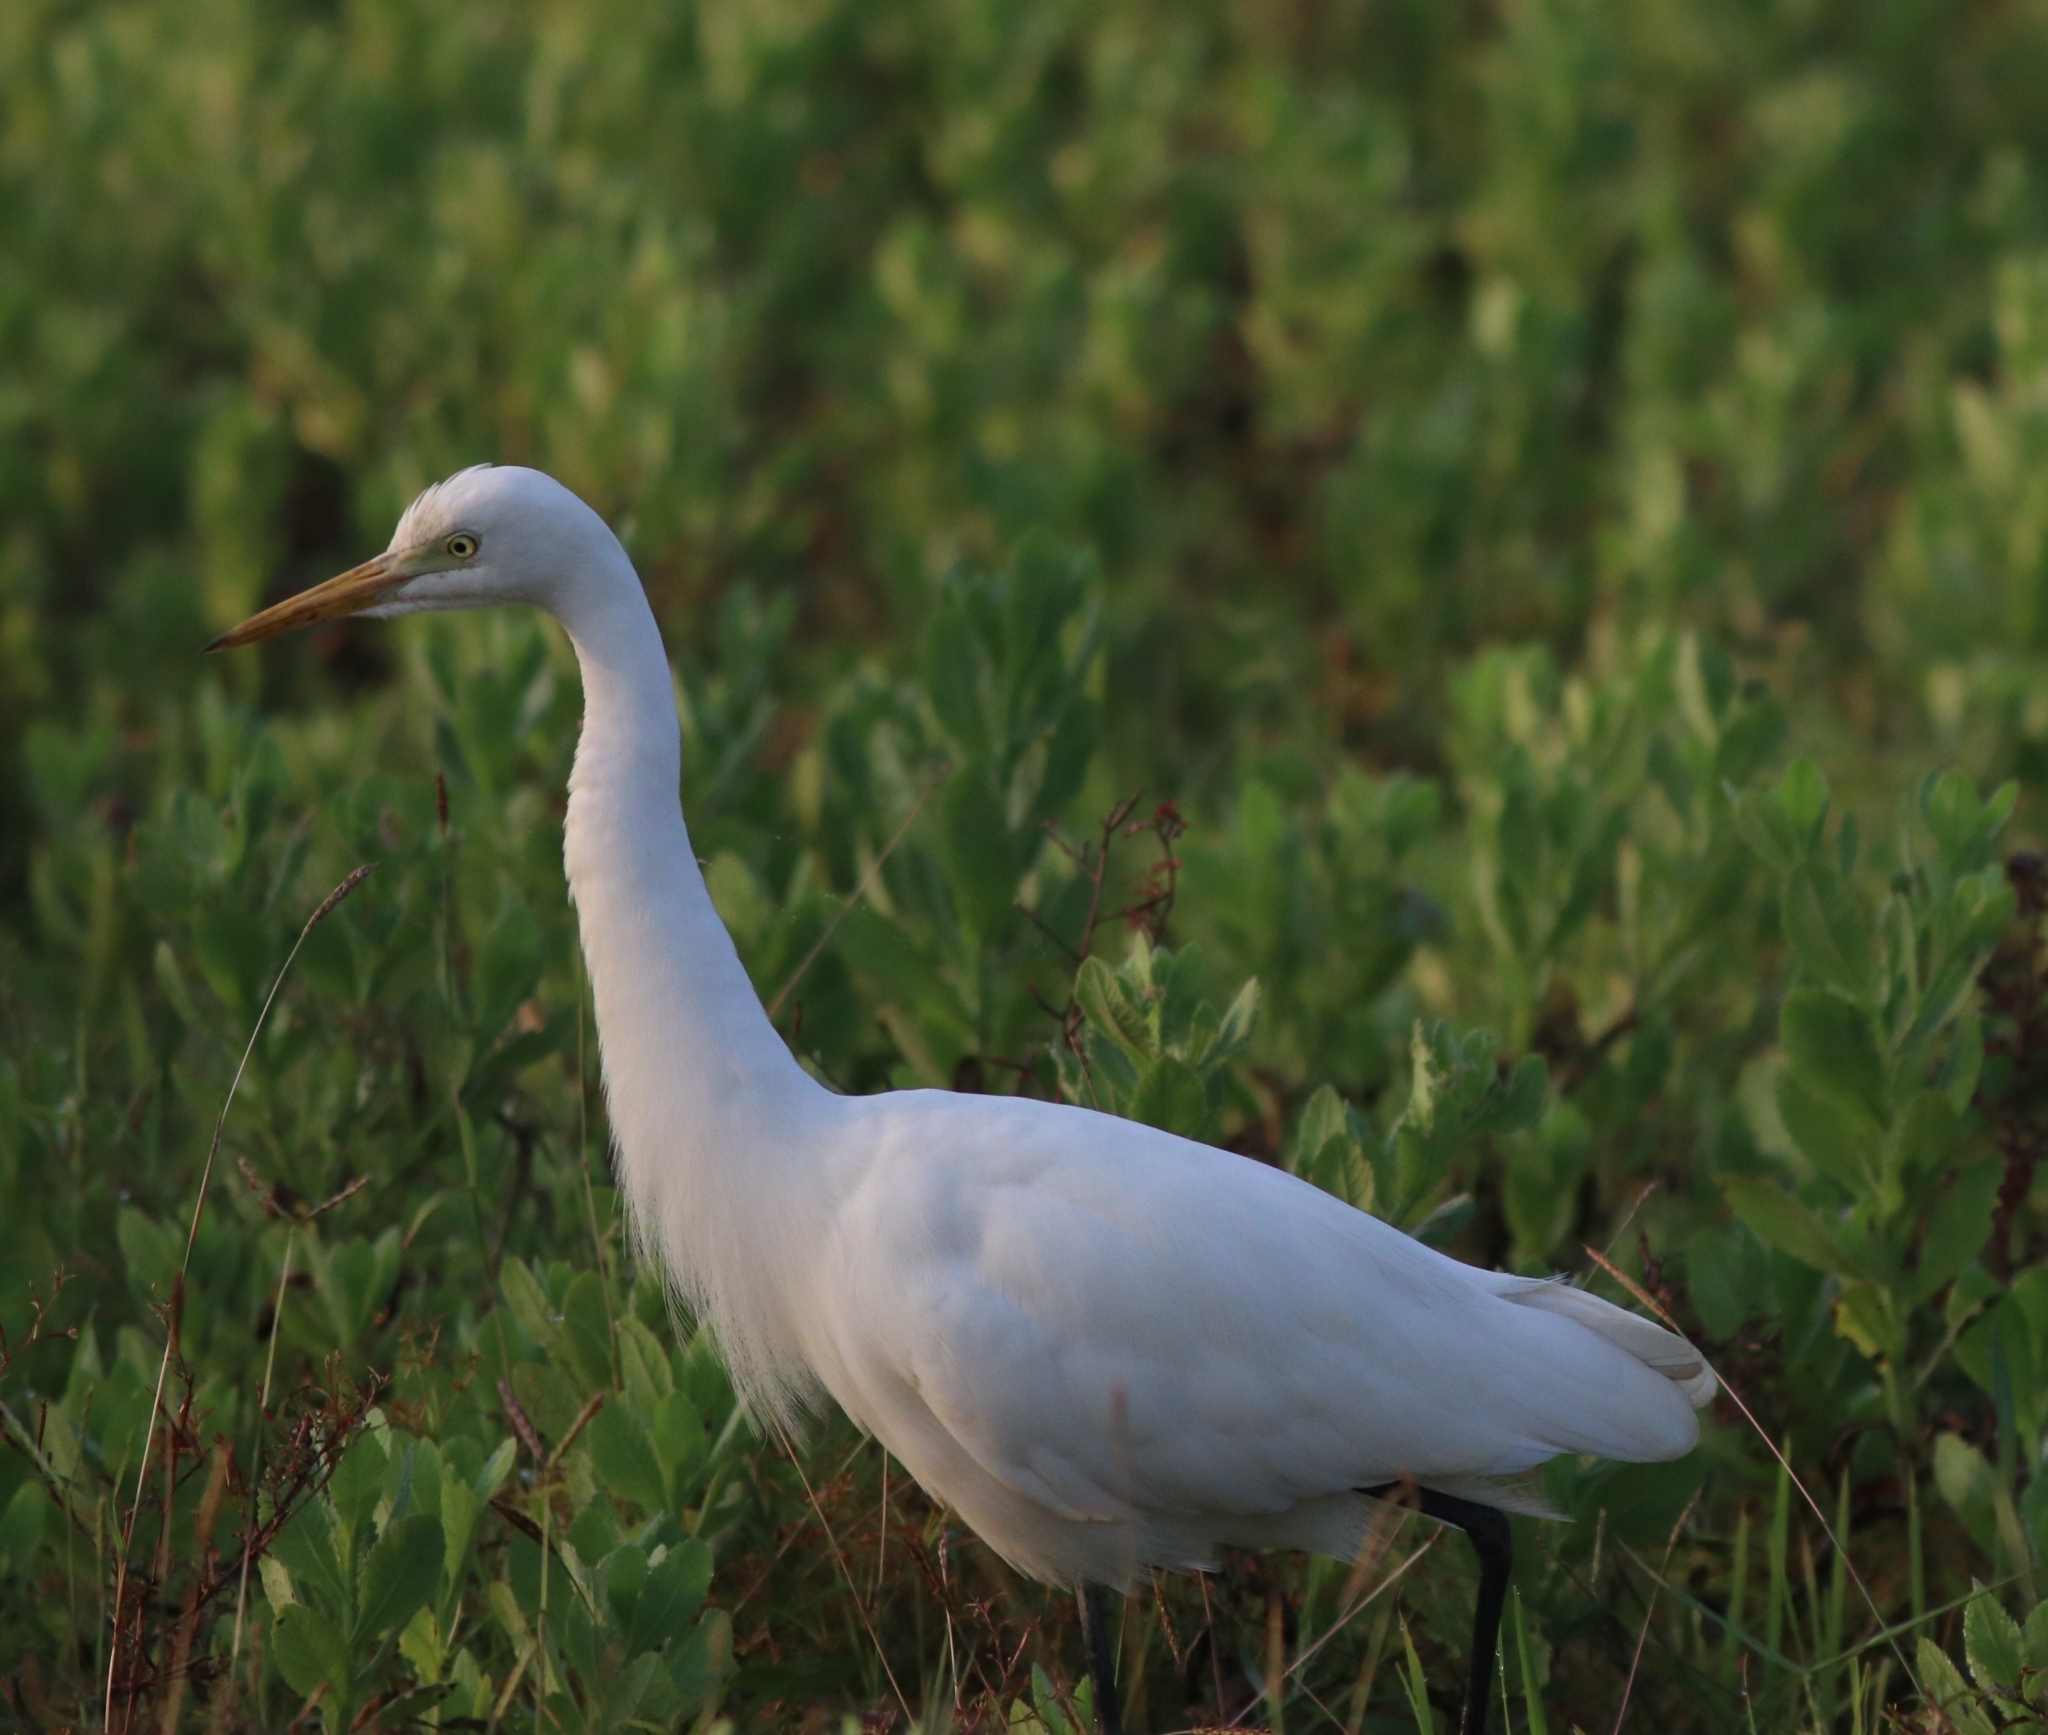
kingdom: Animalia
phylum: Chordata
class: Aves
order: Pelecaniformes
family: Ardeidae
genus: Egretta
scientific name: Egretta intermedia
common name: Intermediate egret
